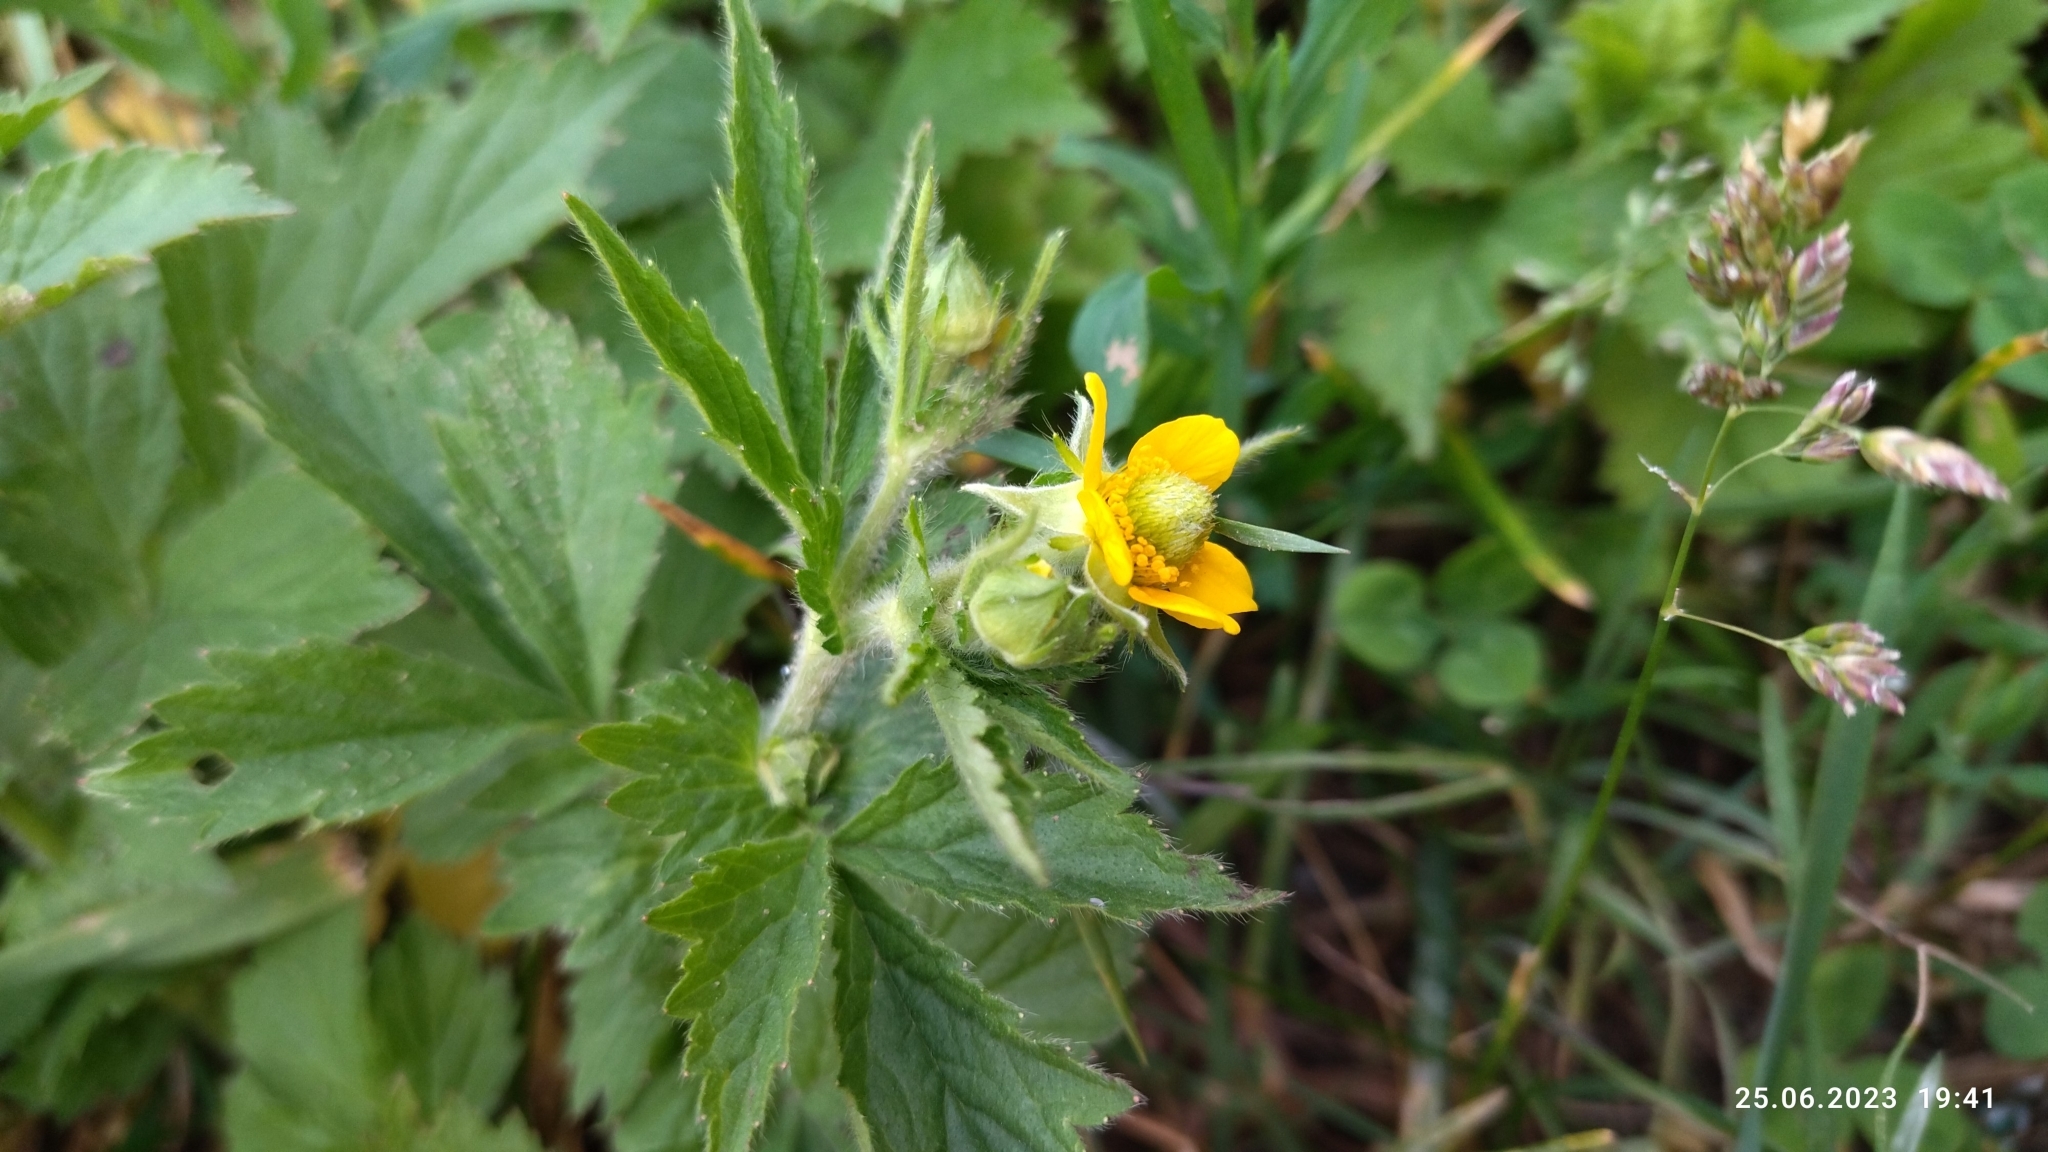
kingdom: Plantae
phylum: Tracheophyta
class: Magnoliopsida
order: Rosales
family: Rosaceae
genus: Geum
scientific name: Geum aleppicum
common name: Yellow avens
